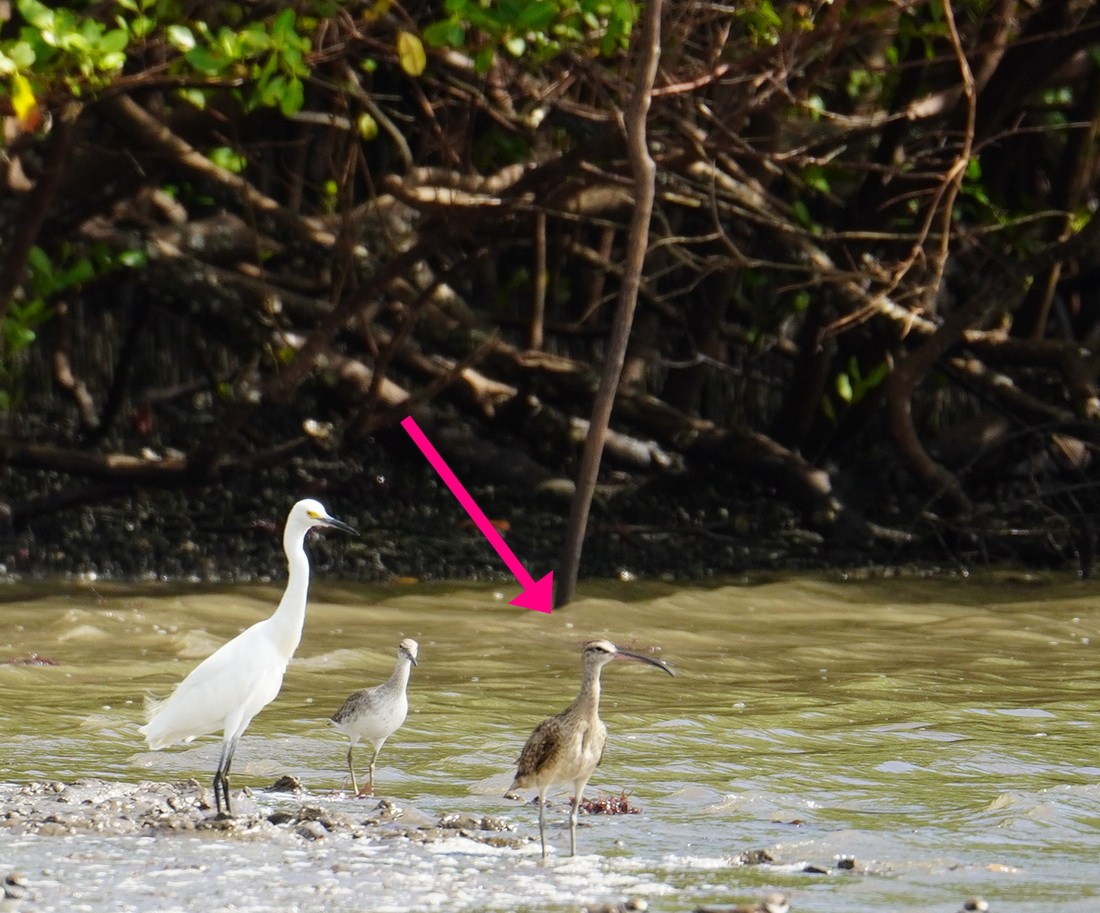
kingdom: Animalia
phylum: Chordata
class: Aves
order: Charadriiformes
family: Scolopacidae
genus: Numenius
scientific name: Numenius hudsonicus
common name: Hudsonian whimbrel
